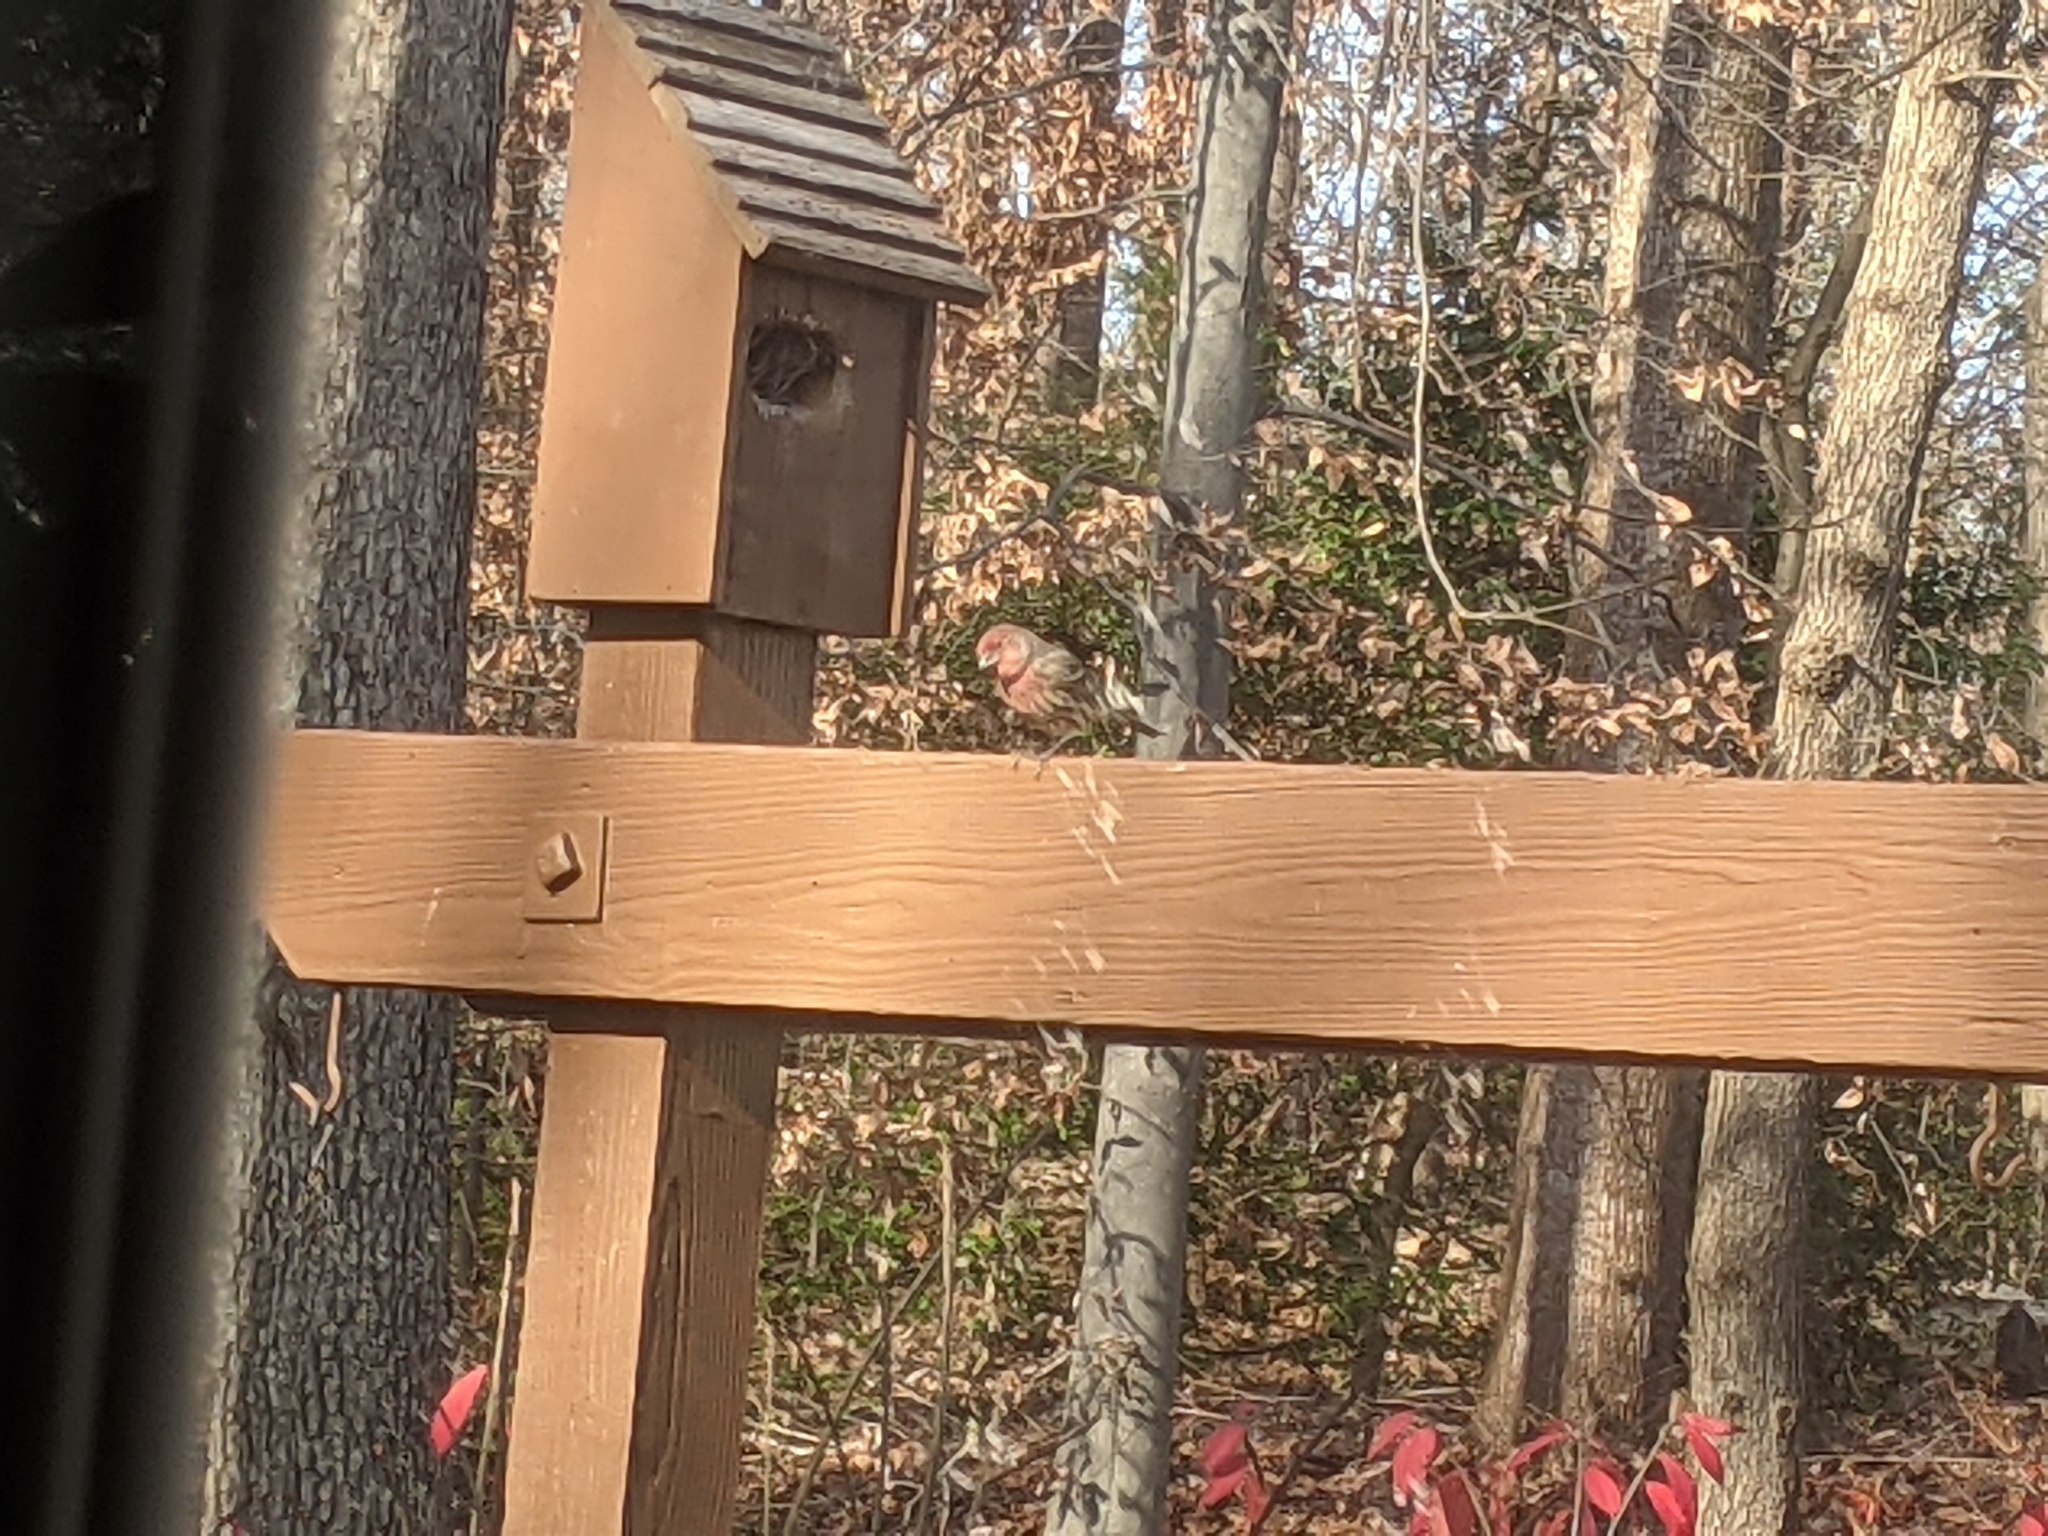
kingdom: Animalia
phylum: Chordata
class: Aves
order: Passeriformes
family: Fringillidae
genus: Haemorhous
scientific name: Haemorhous mexicanus
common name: House finch
